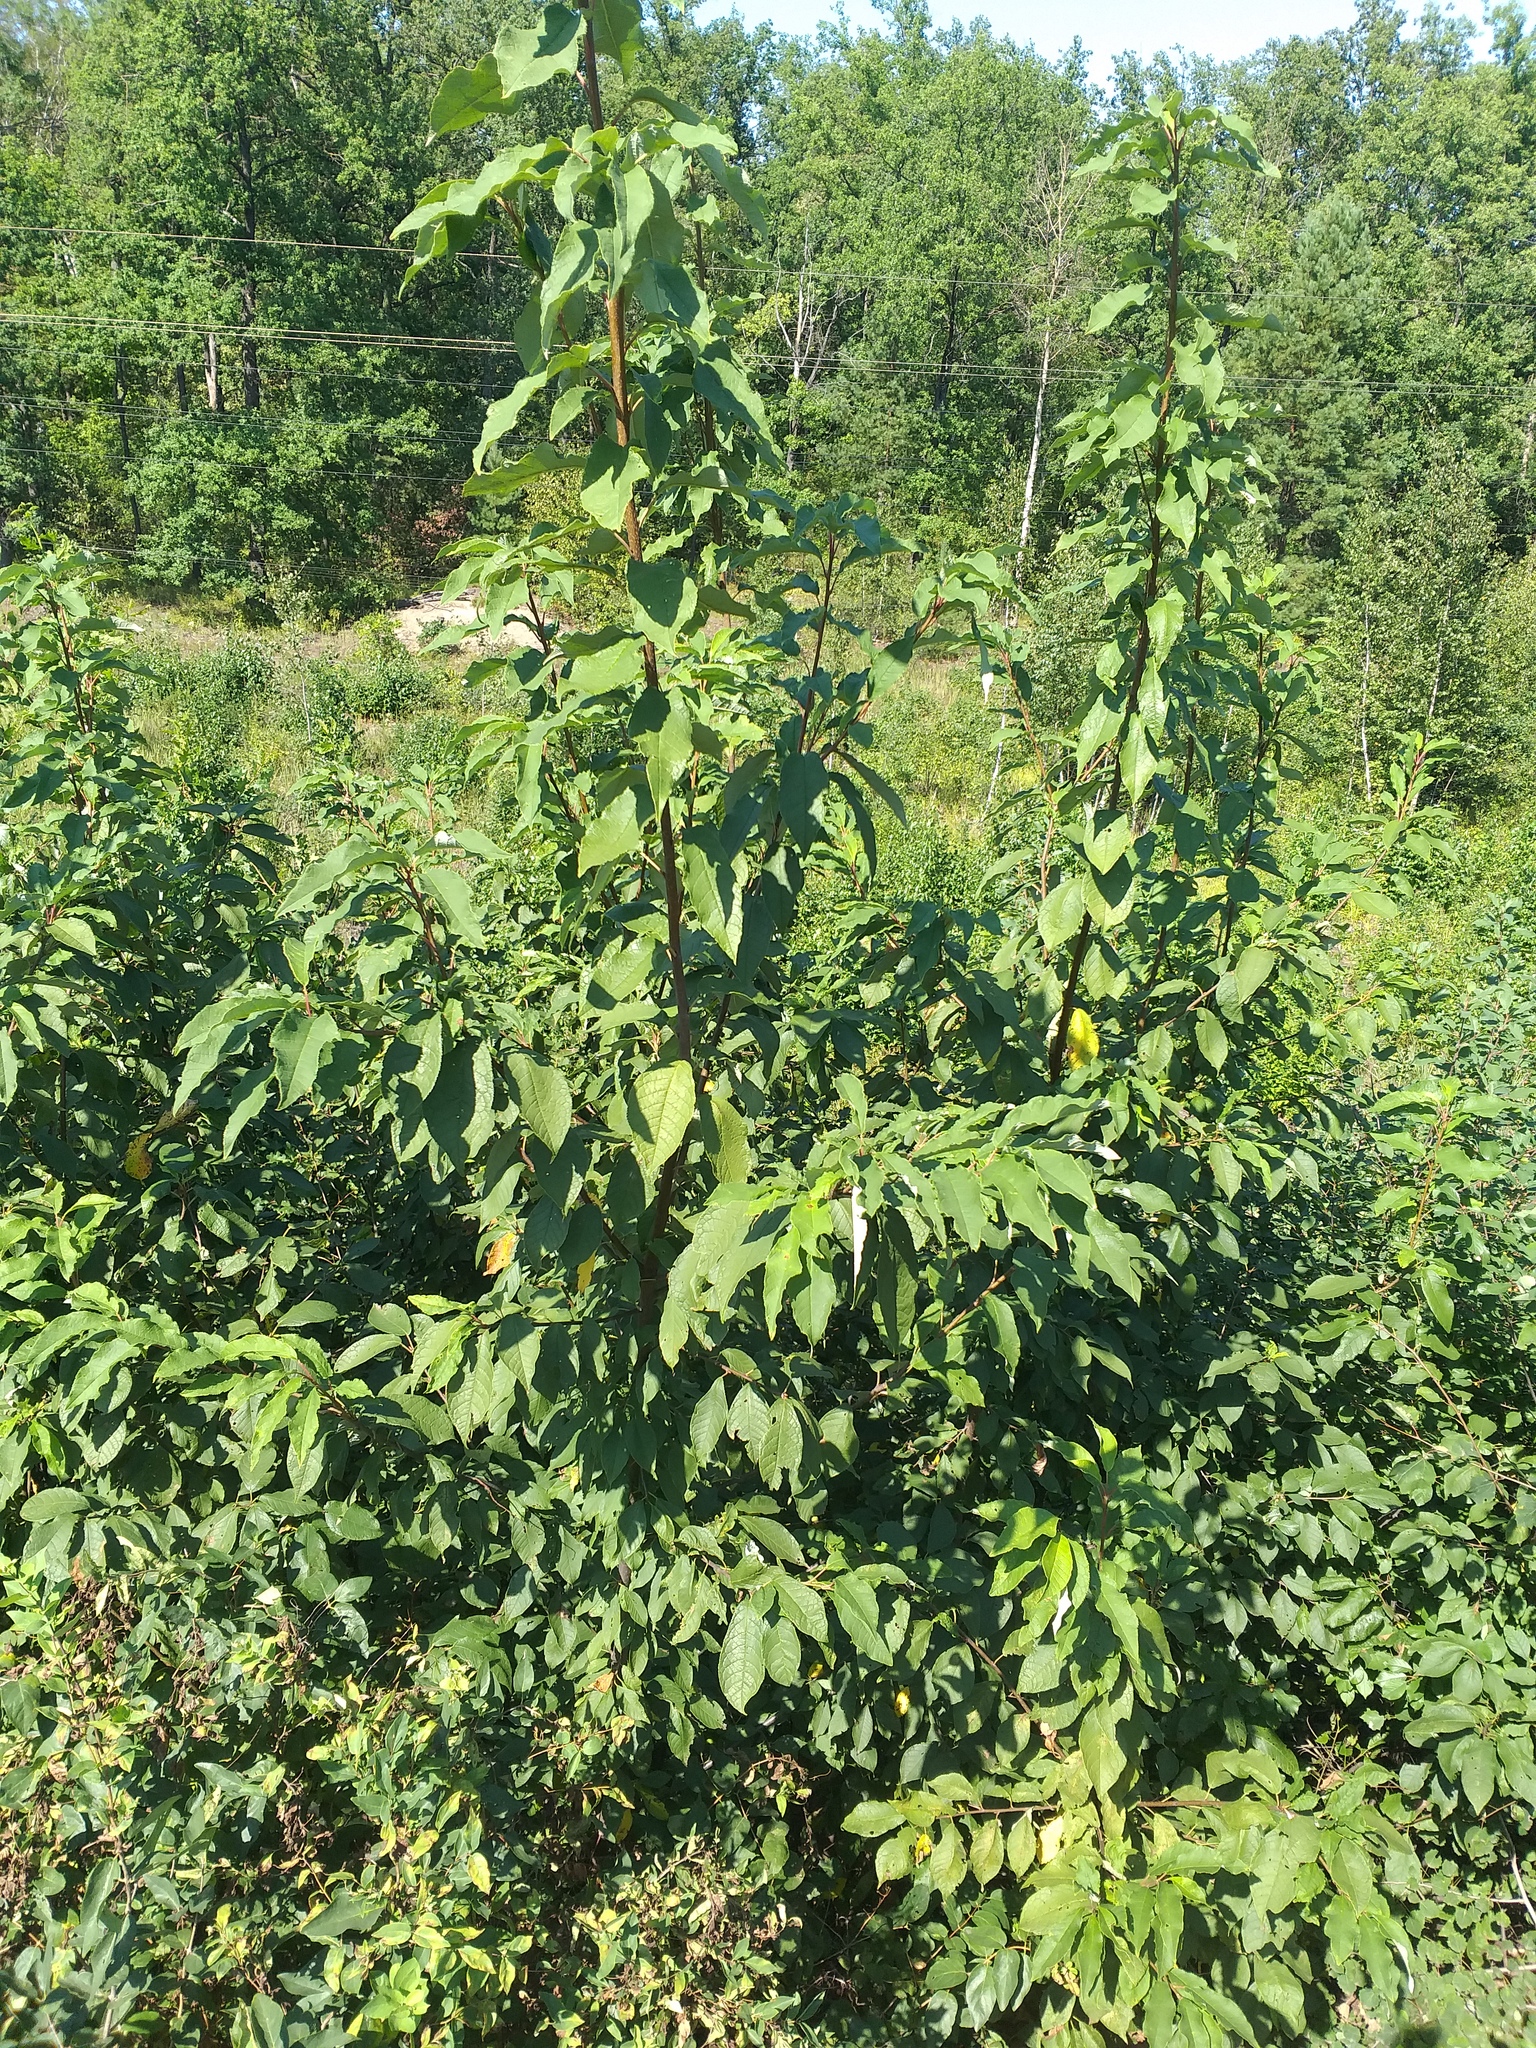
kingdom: Plantae
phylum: Tracheophyta
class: Magnoliopsida
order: Rosales
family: Rosaceae
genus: Prunus
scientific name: Prunus virginiana
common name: Chokecherry
